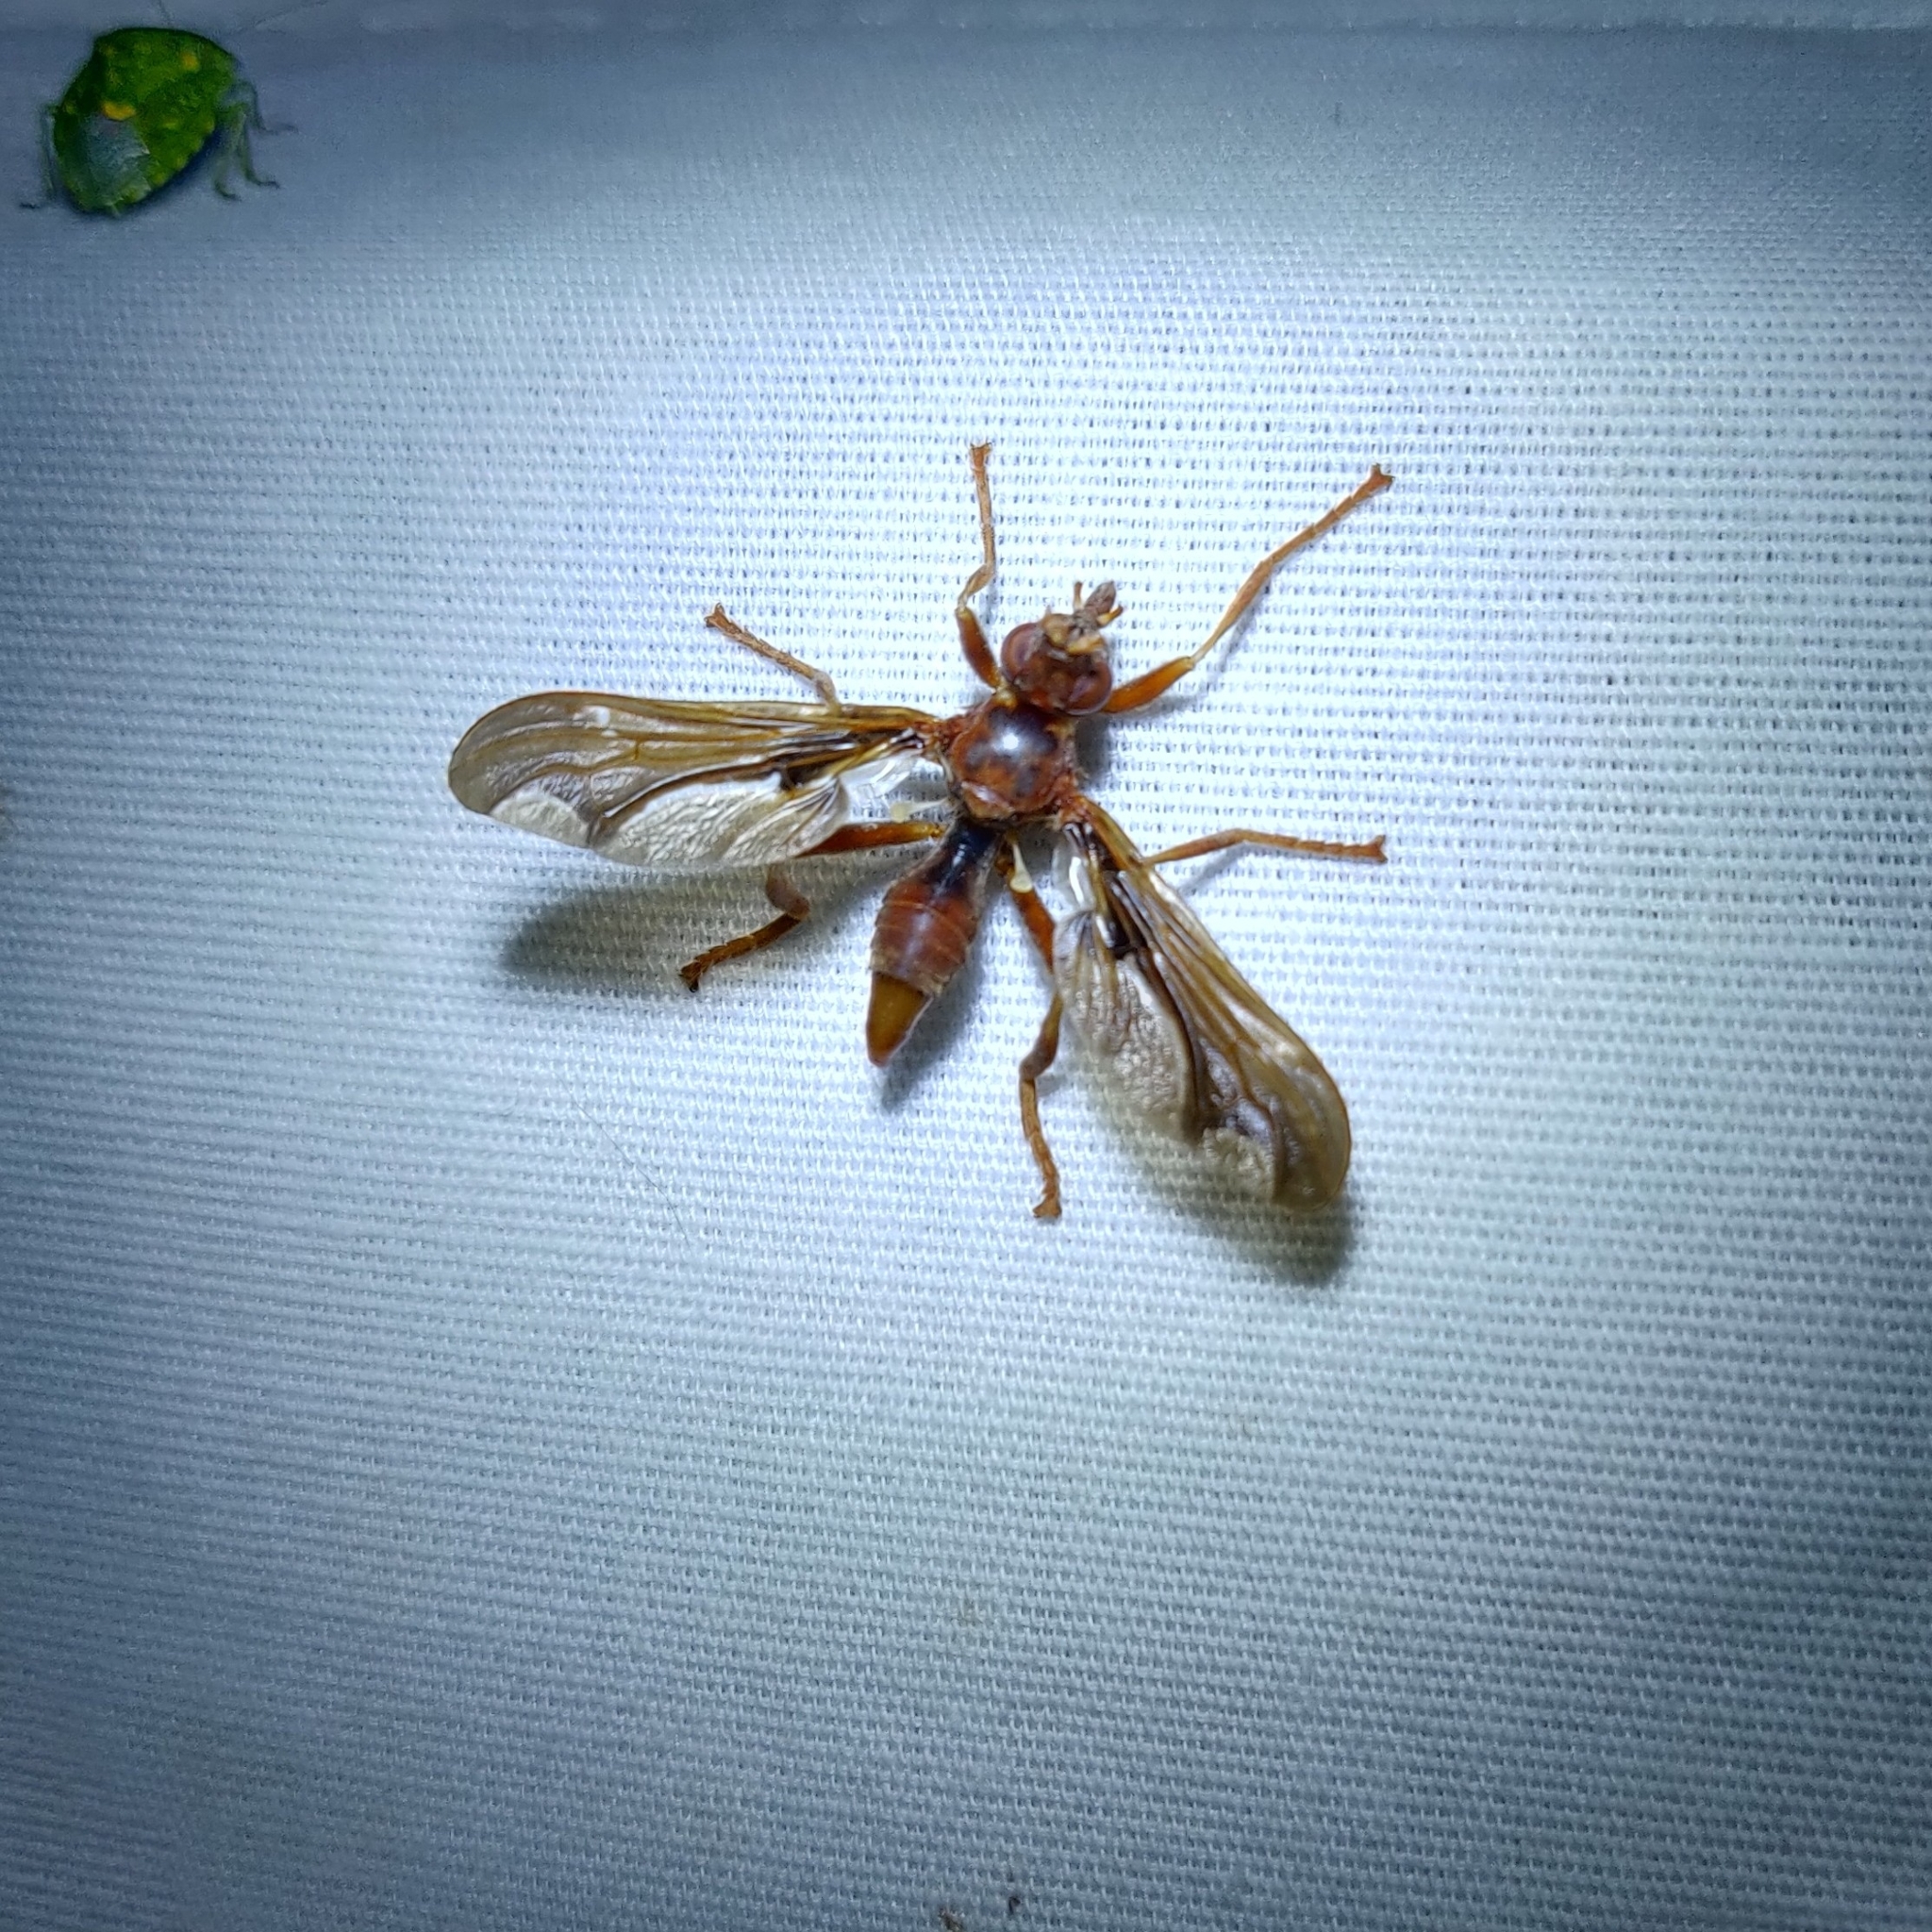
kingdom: Animalia
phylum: Arthropoda
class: Insecta
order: Diptera
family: Pyrgotidae
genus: Pyrgota
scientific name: Pyrgota undata
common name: Waved light fly
